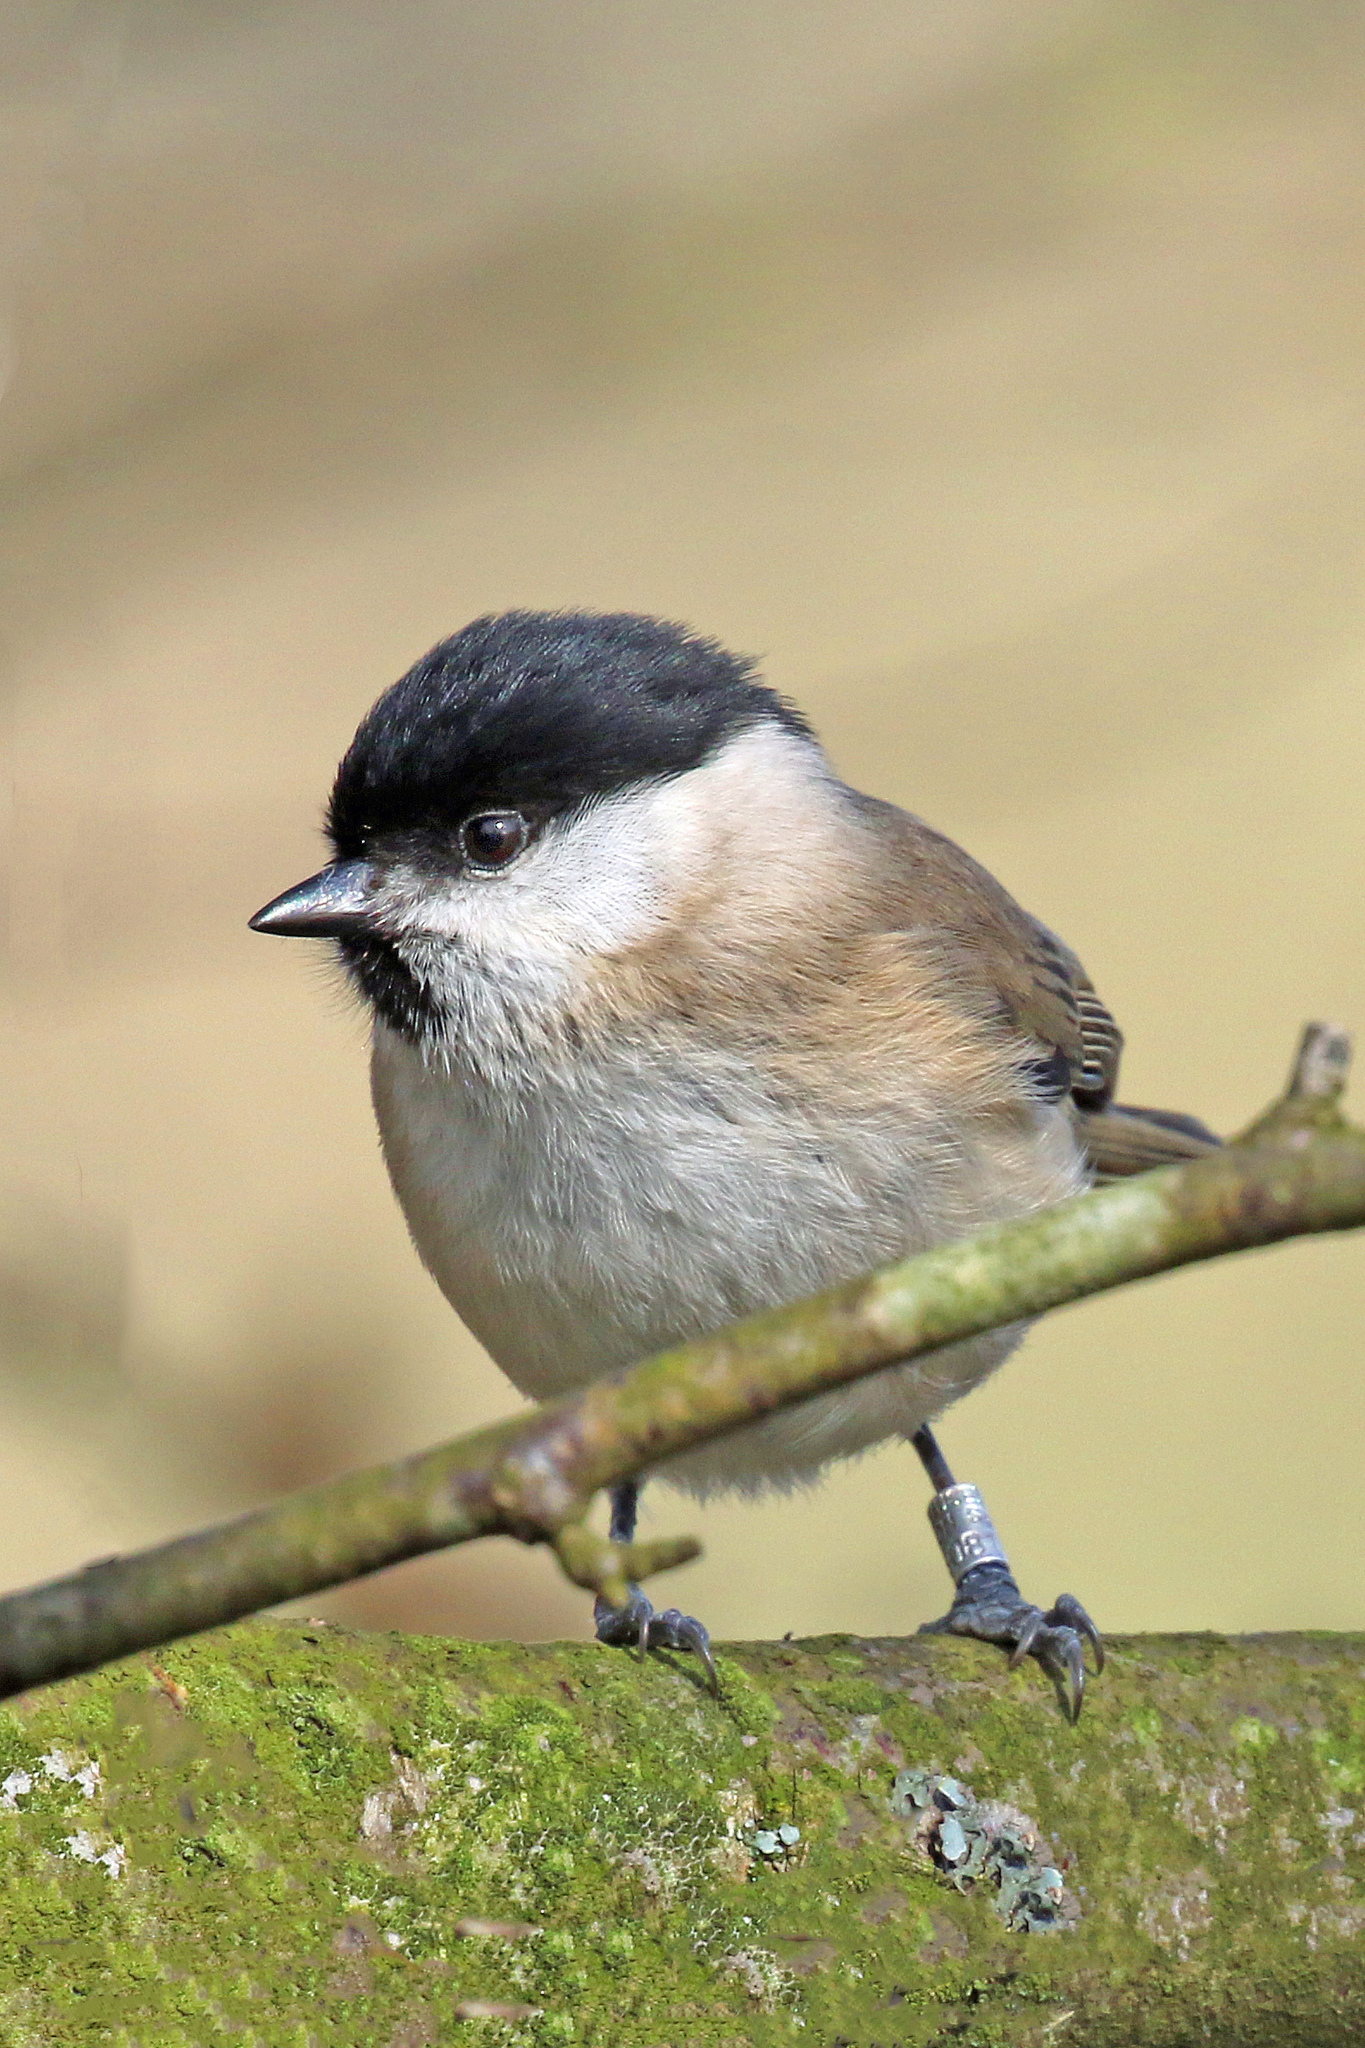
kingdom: Animalia
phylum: Chordata
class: Aves
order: Passeriformes
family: Paridae
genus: Poecile
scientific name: Poecile palustris
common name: Marsh tit
